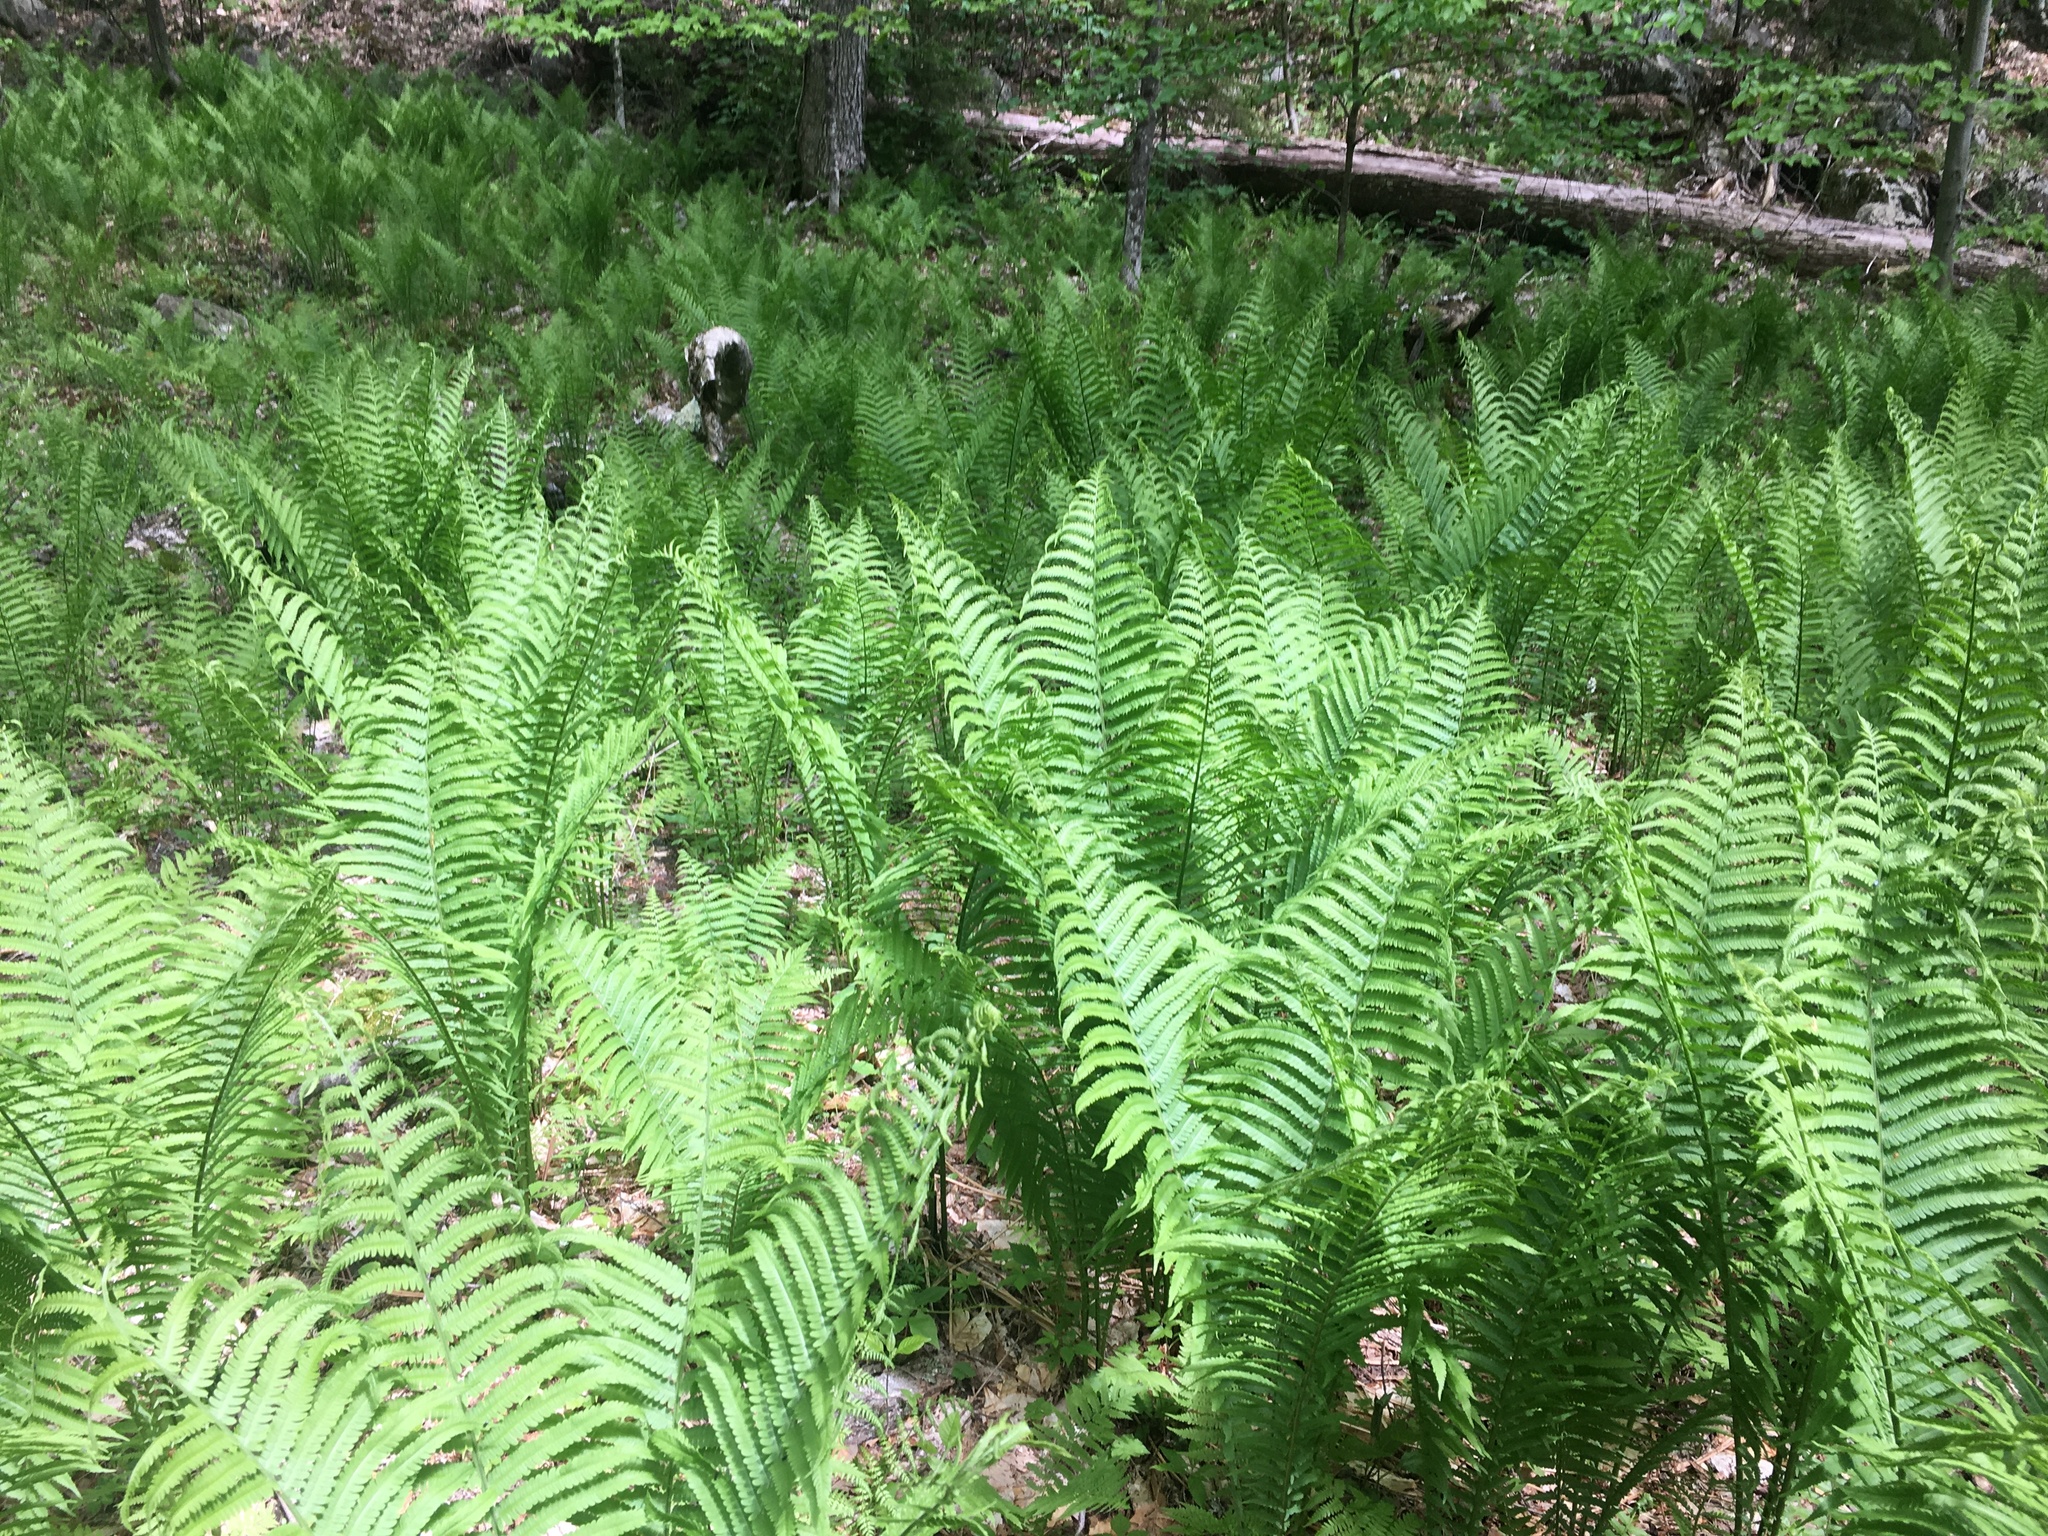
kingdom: Plantae
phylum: Tracheophyta
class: Polypodiopsida
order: Polypodiales
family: Onocleaceae
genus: Matteuccia
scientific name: Matteuccia struthiopteris
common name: Ostrich fern
